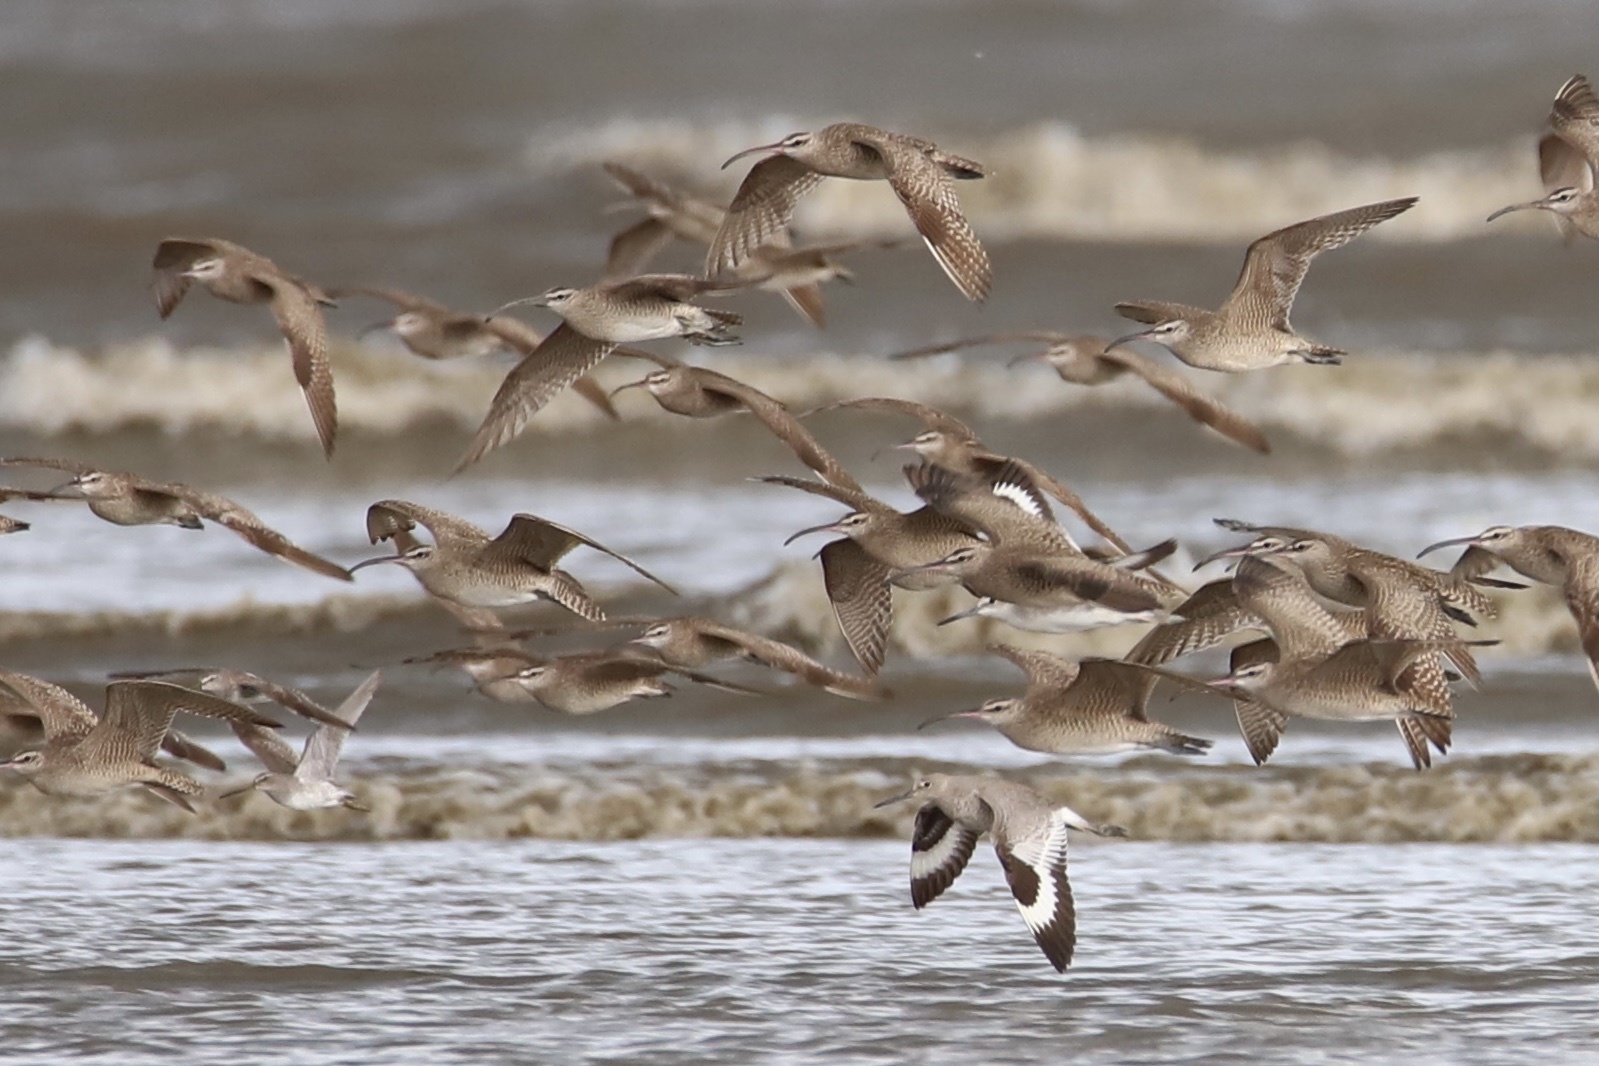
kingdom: Animalia
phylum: Chordata
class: Aves
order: Charadriiformes
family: Scolopacidae
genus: Numenius
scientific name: Numenius phaeopus
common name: Whimbrel
